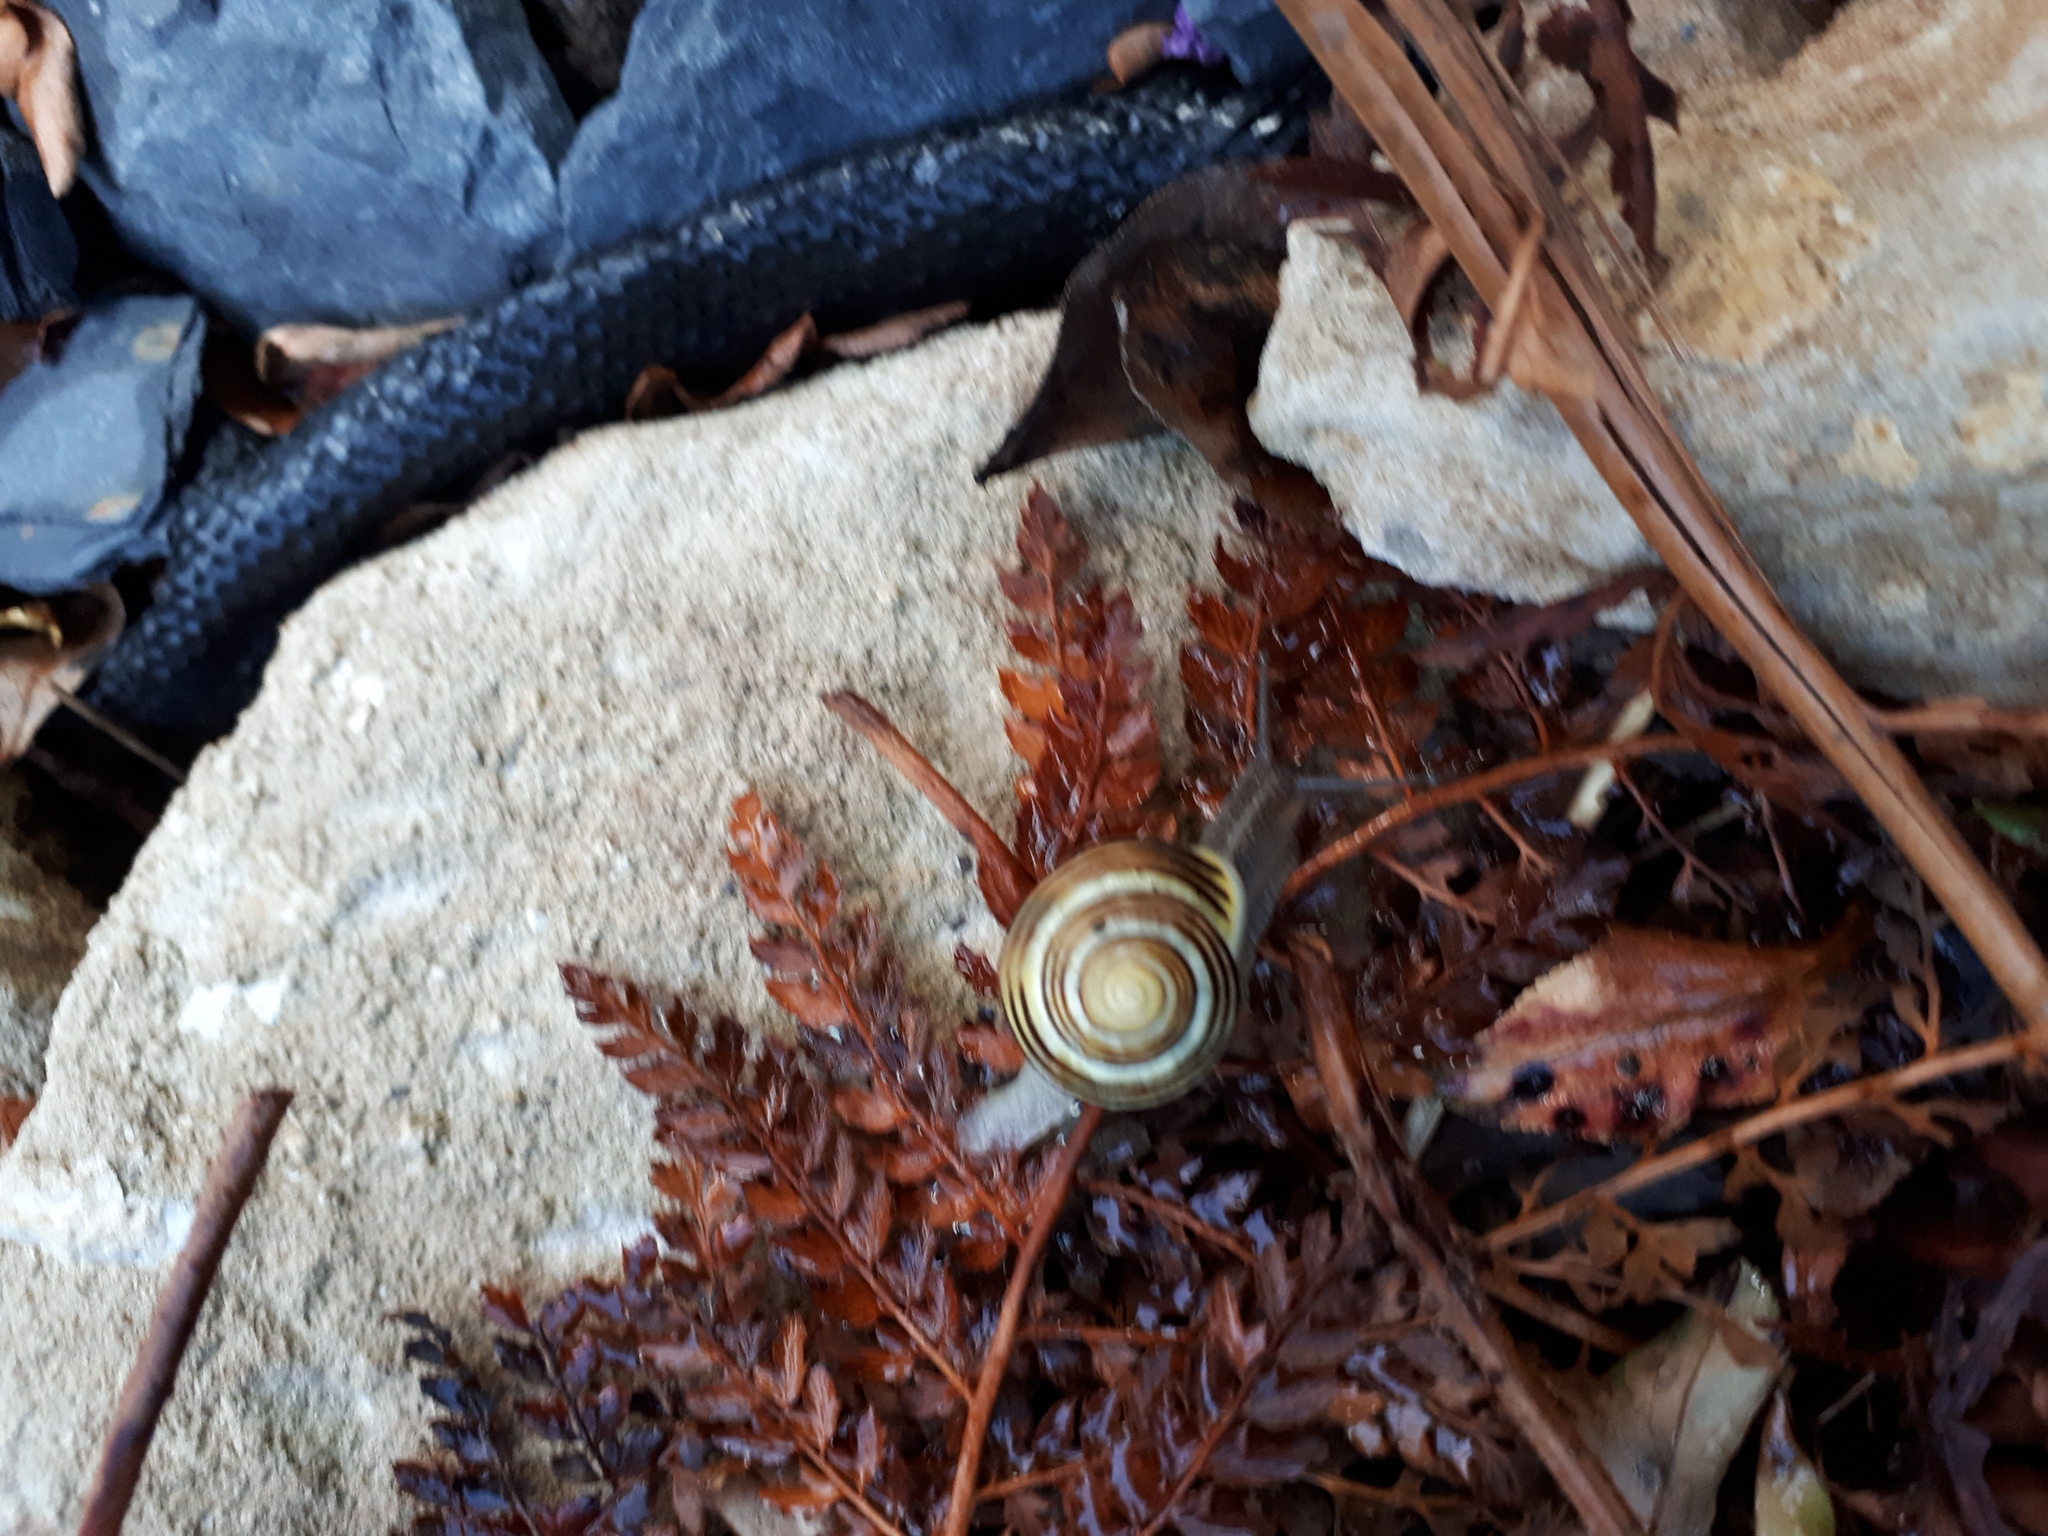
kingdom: Animalia
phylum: Mollusca
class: Gastropoda
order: Stylommatophora
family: Helicidae
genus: Cepaea
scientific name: Cepaea hortensis
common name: White-lip gardensnail
